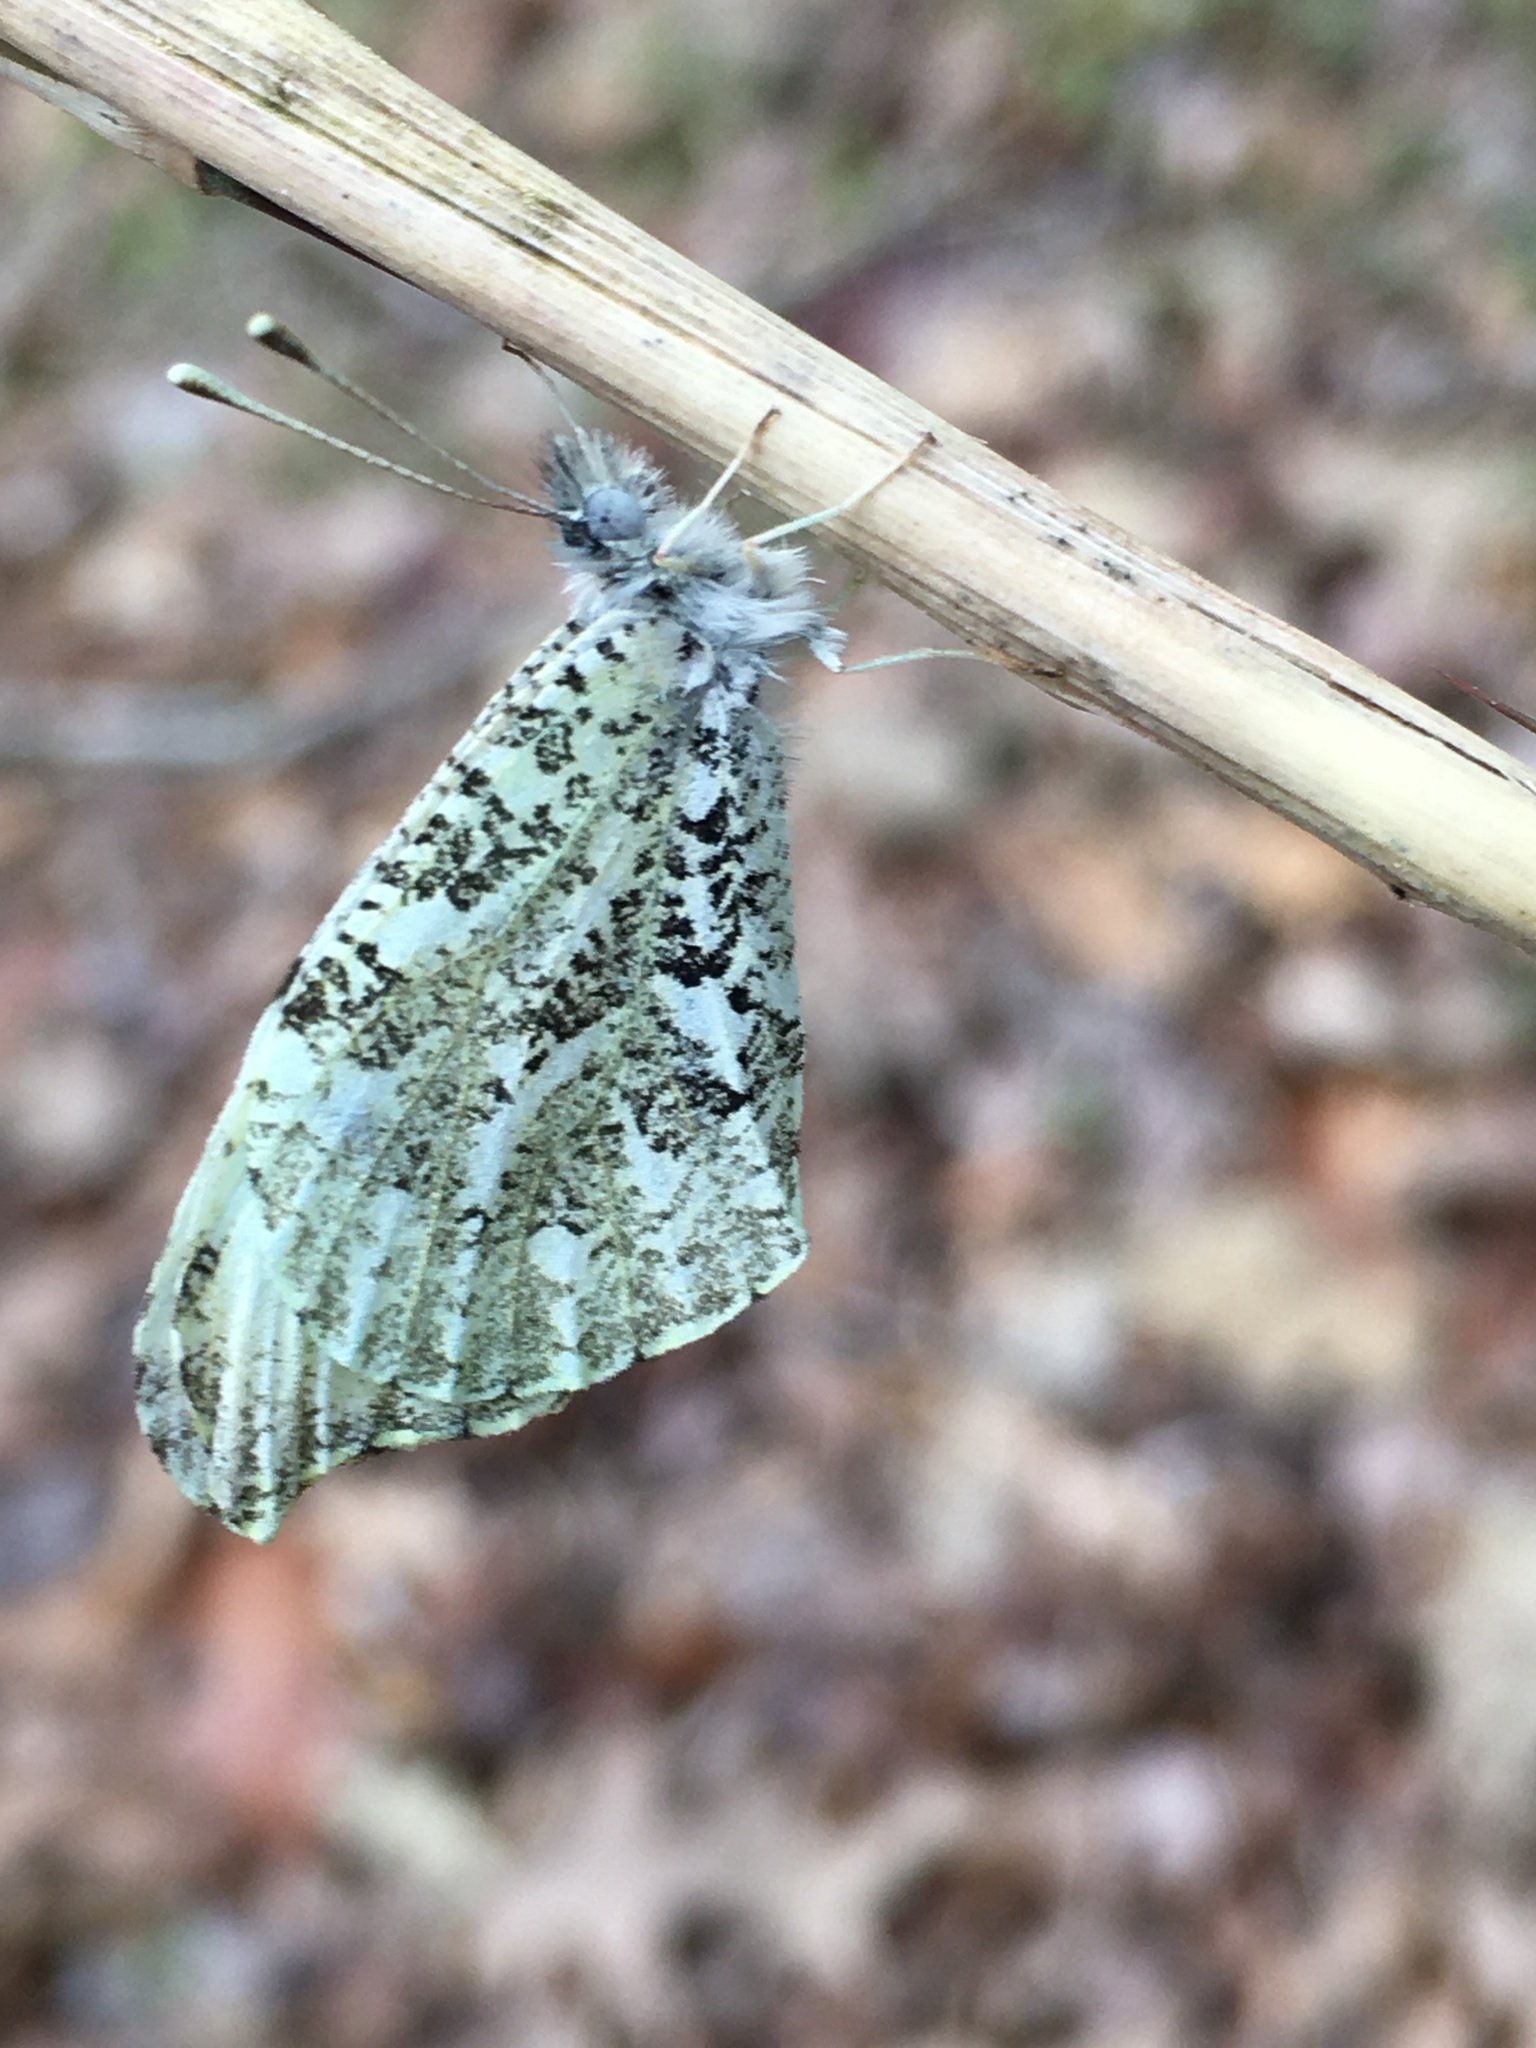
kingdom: Animalia
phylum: Arthropoda
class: Insecta
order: Lepidoptera
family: Pieridae
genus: Anthocharis
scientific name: Anthocharis midea
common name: Falcate orangetip
